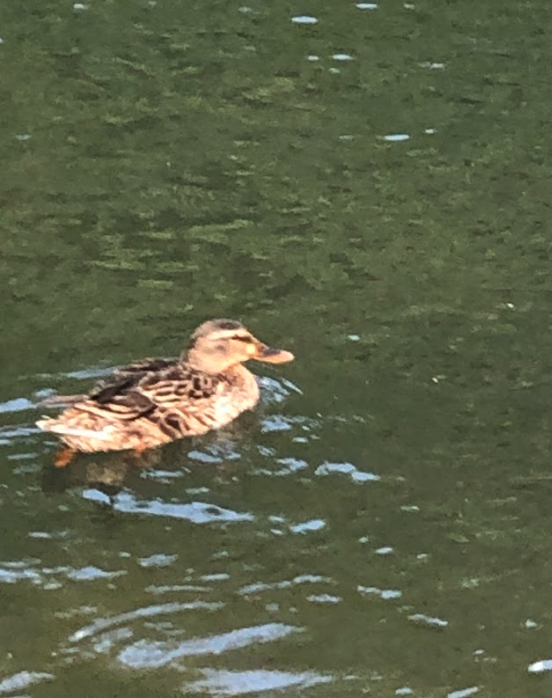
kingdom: Animalia
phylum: Chordata
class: Aves
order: Anseriformes
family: Anatidae
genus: Anas
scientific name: Anas platyrhynchos
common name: Mallard
